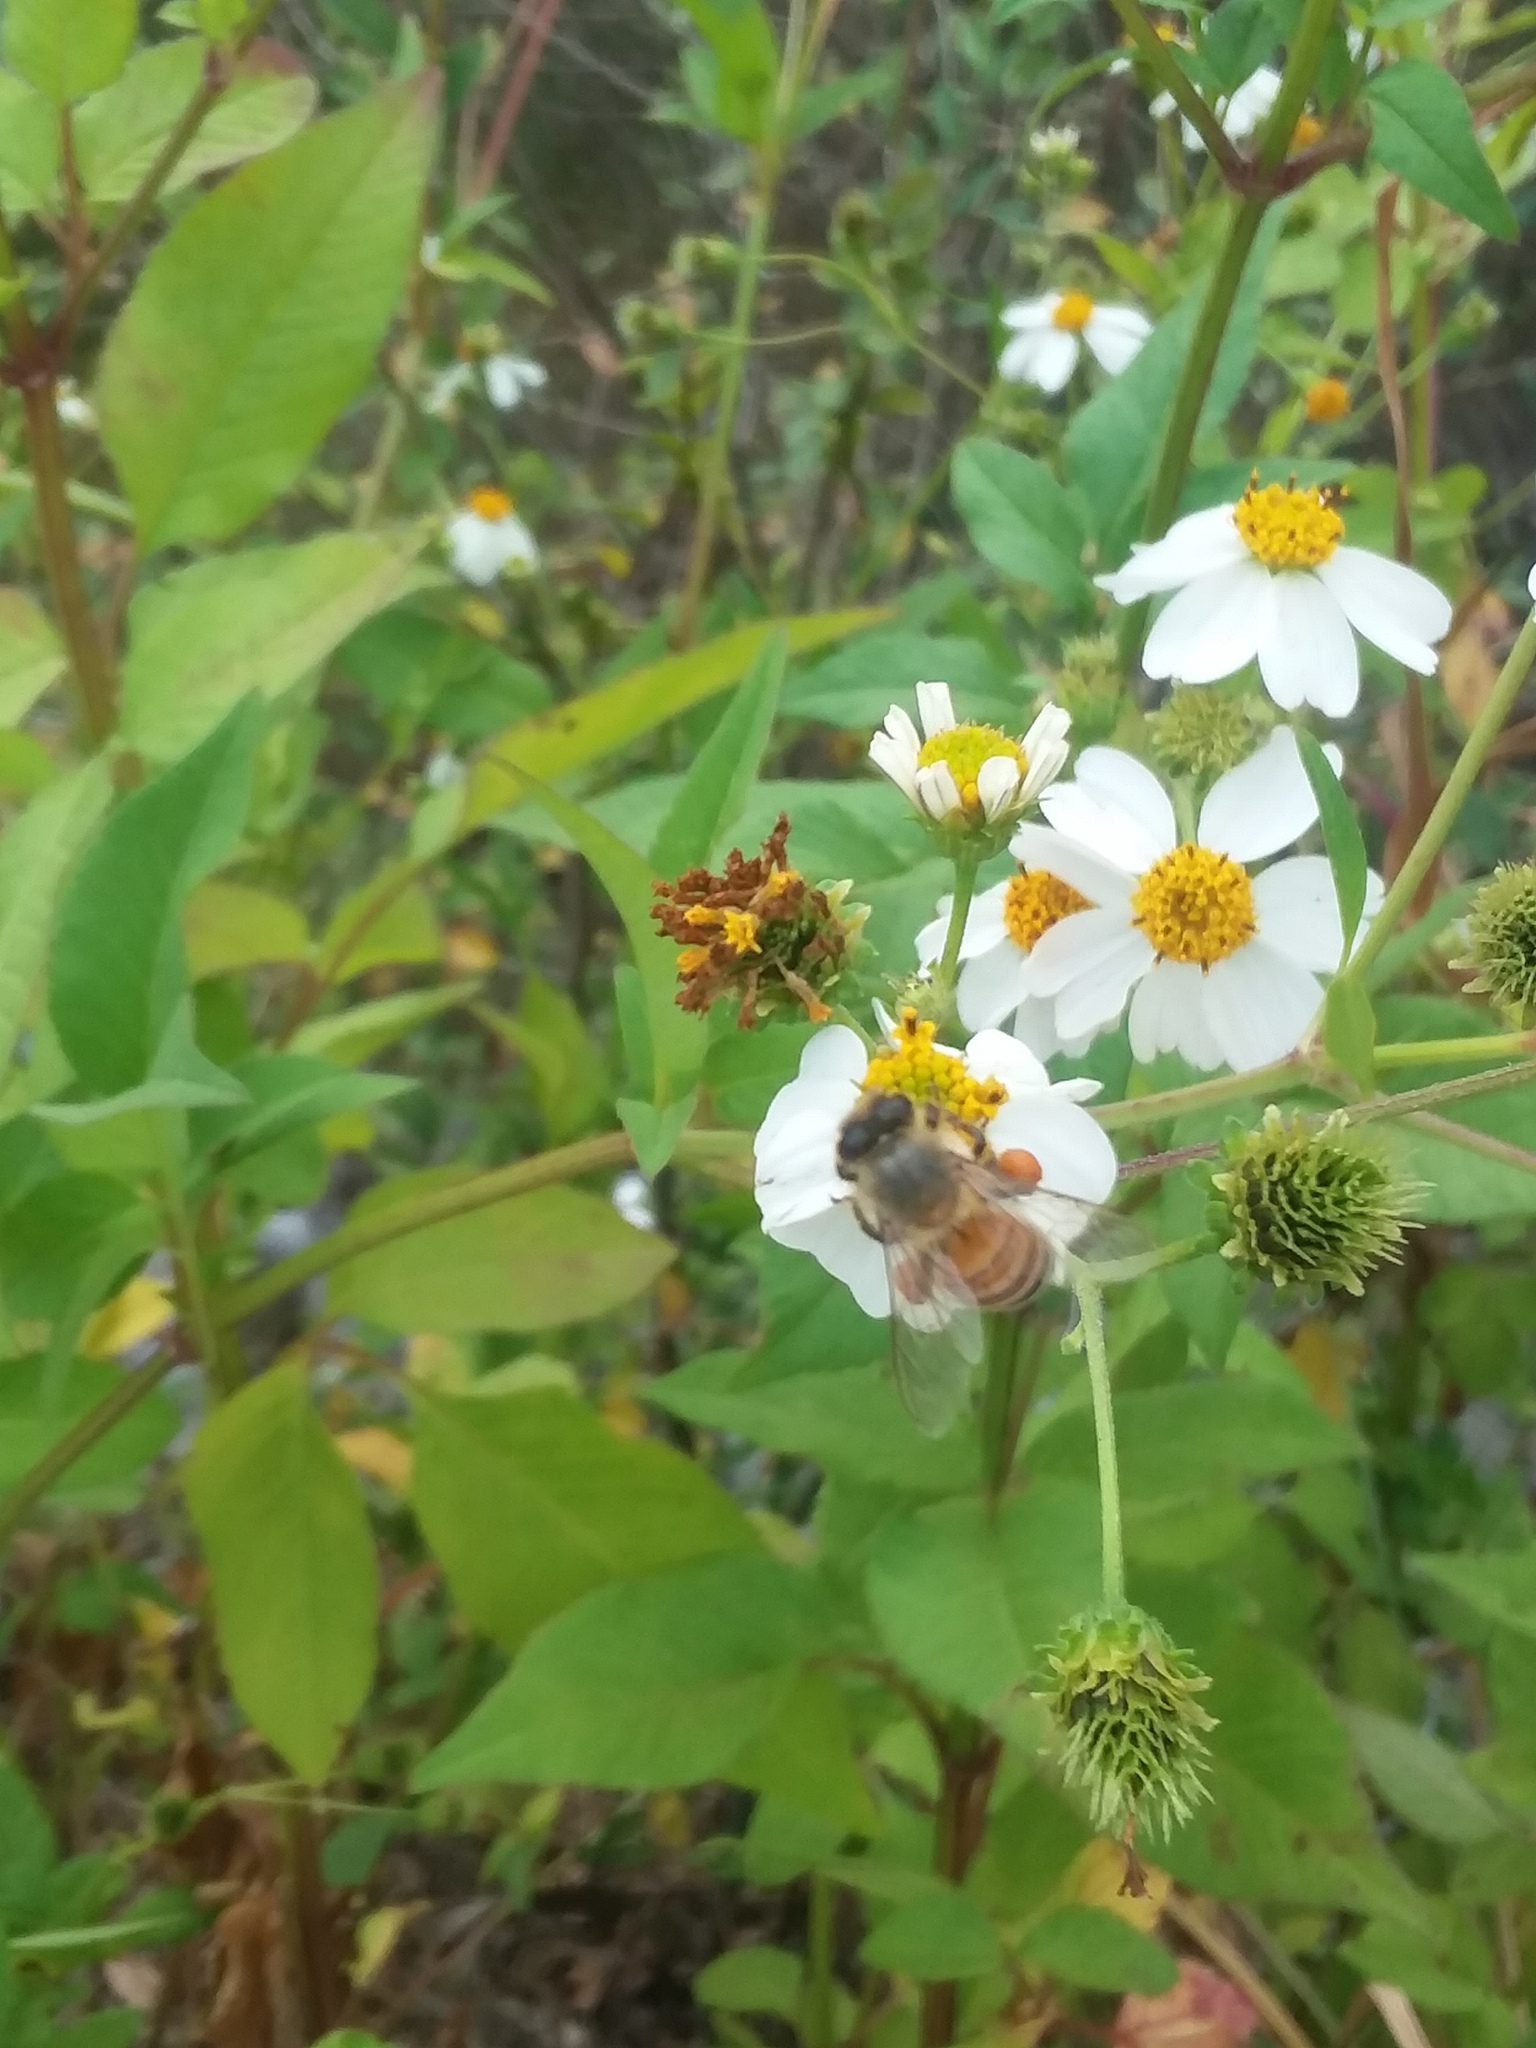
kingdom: Animalia
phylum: Arthropoda
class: Insecta
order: Hymenoptera
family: Apidae
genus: Apis
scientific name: Apis mellifera
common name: Honey bee
